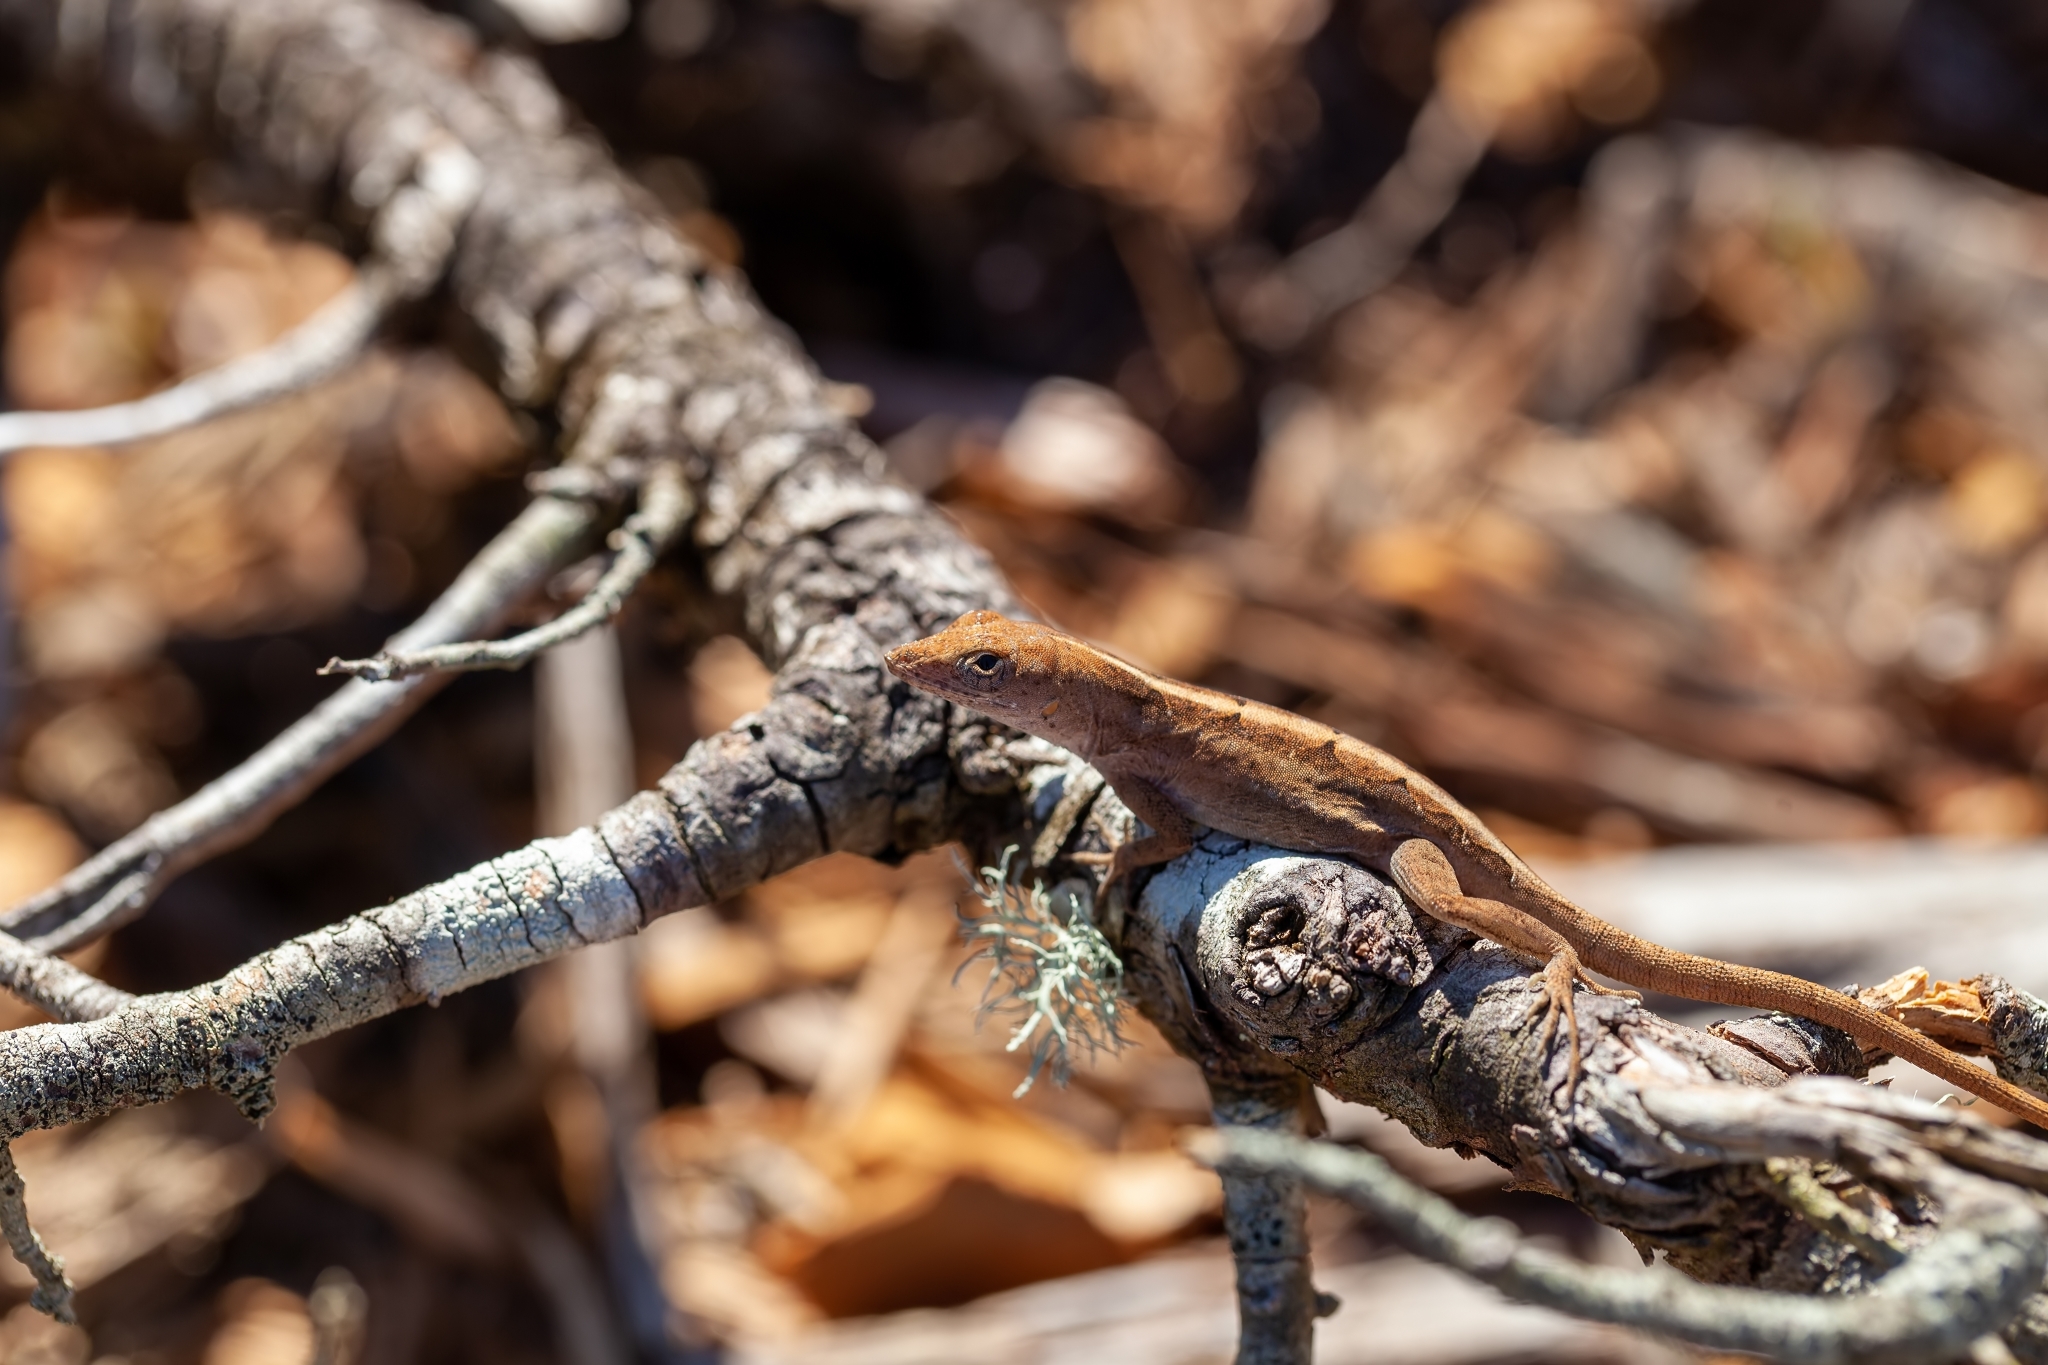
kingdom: Animalia
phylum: Chordata
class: Squamata
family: Dactyloidae
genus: Anolis
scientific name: Anolis sagrei
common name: Brown anole
